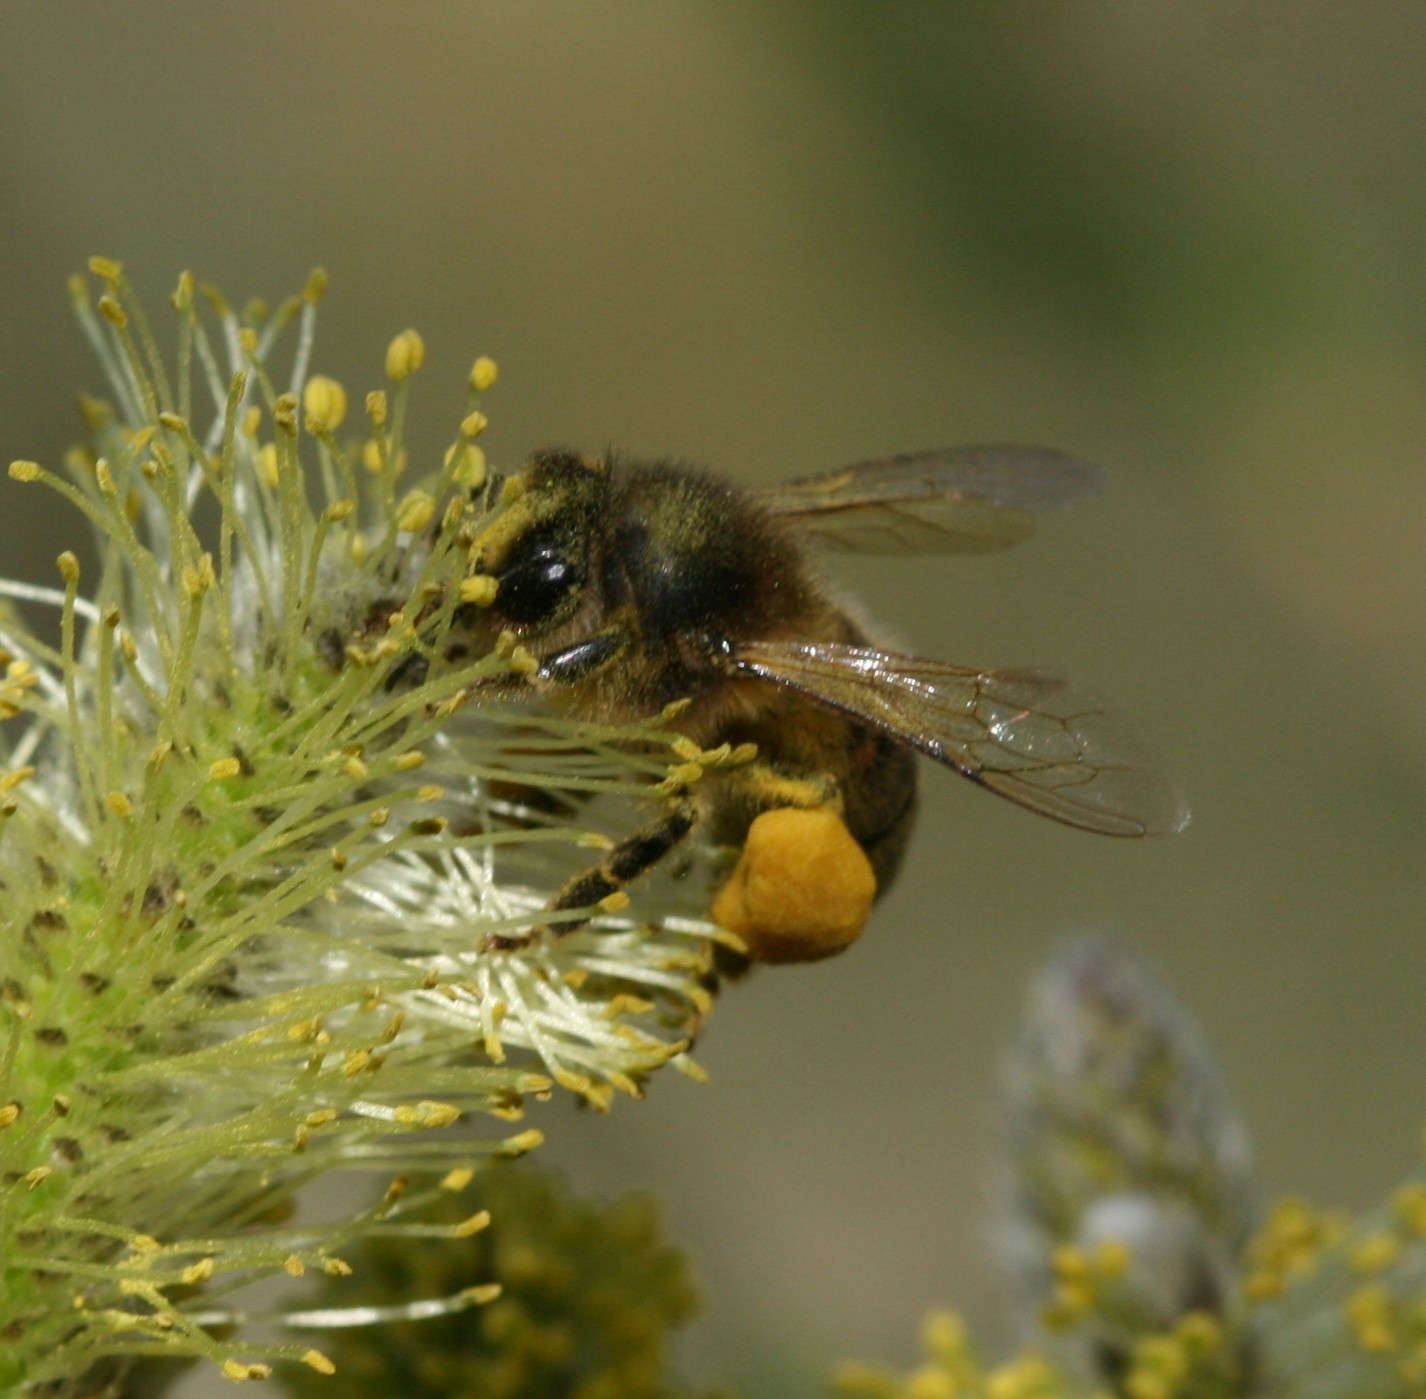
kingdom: Animalia
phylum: Arthropoda
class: Insecta
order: Hymenoptera
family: Apidae
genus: Apis
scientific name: Apis mellifera
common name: Honey bee
